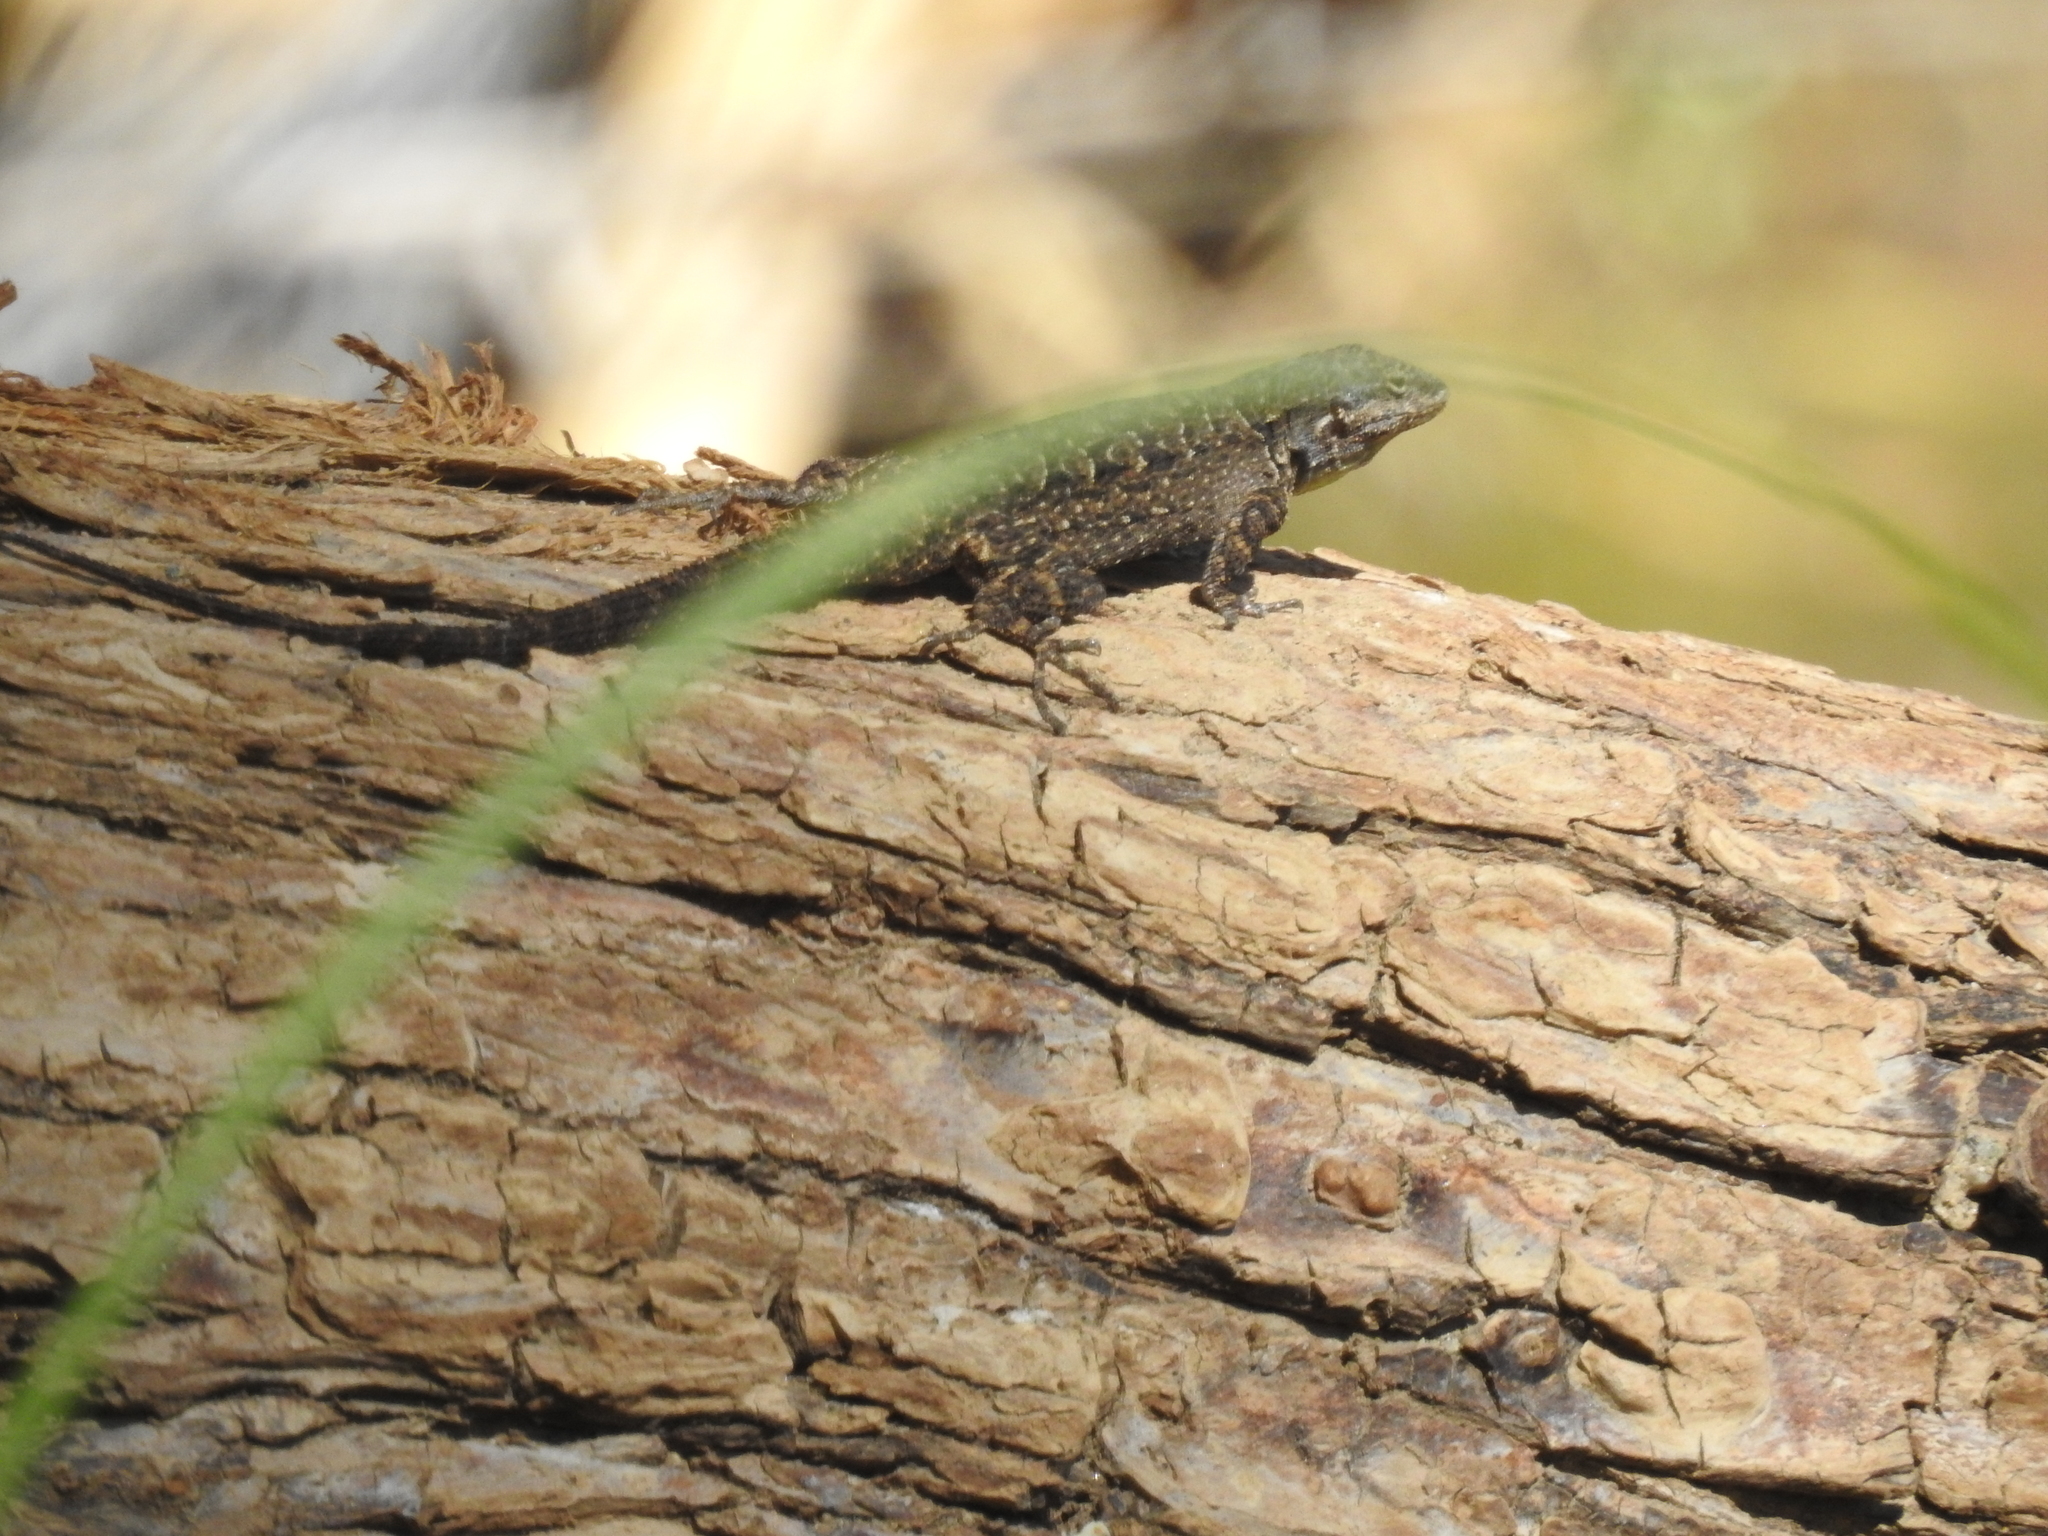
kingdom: Animalia
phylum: Chordata
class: Squamata
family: Phrynosomatidae
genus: Urosaurus
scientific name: Urosaurus ornatus
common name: Ornate tree lizard
